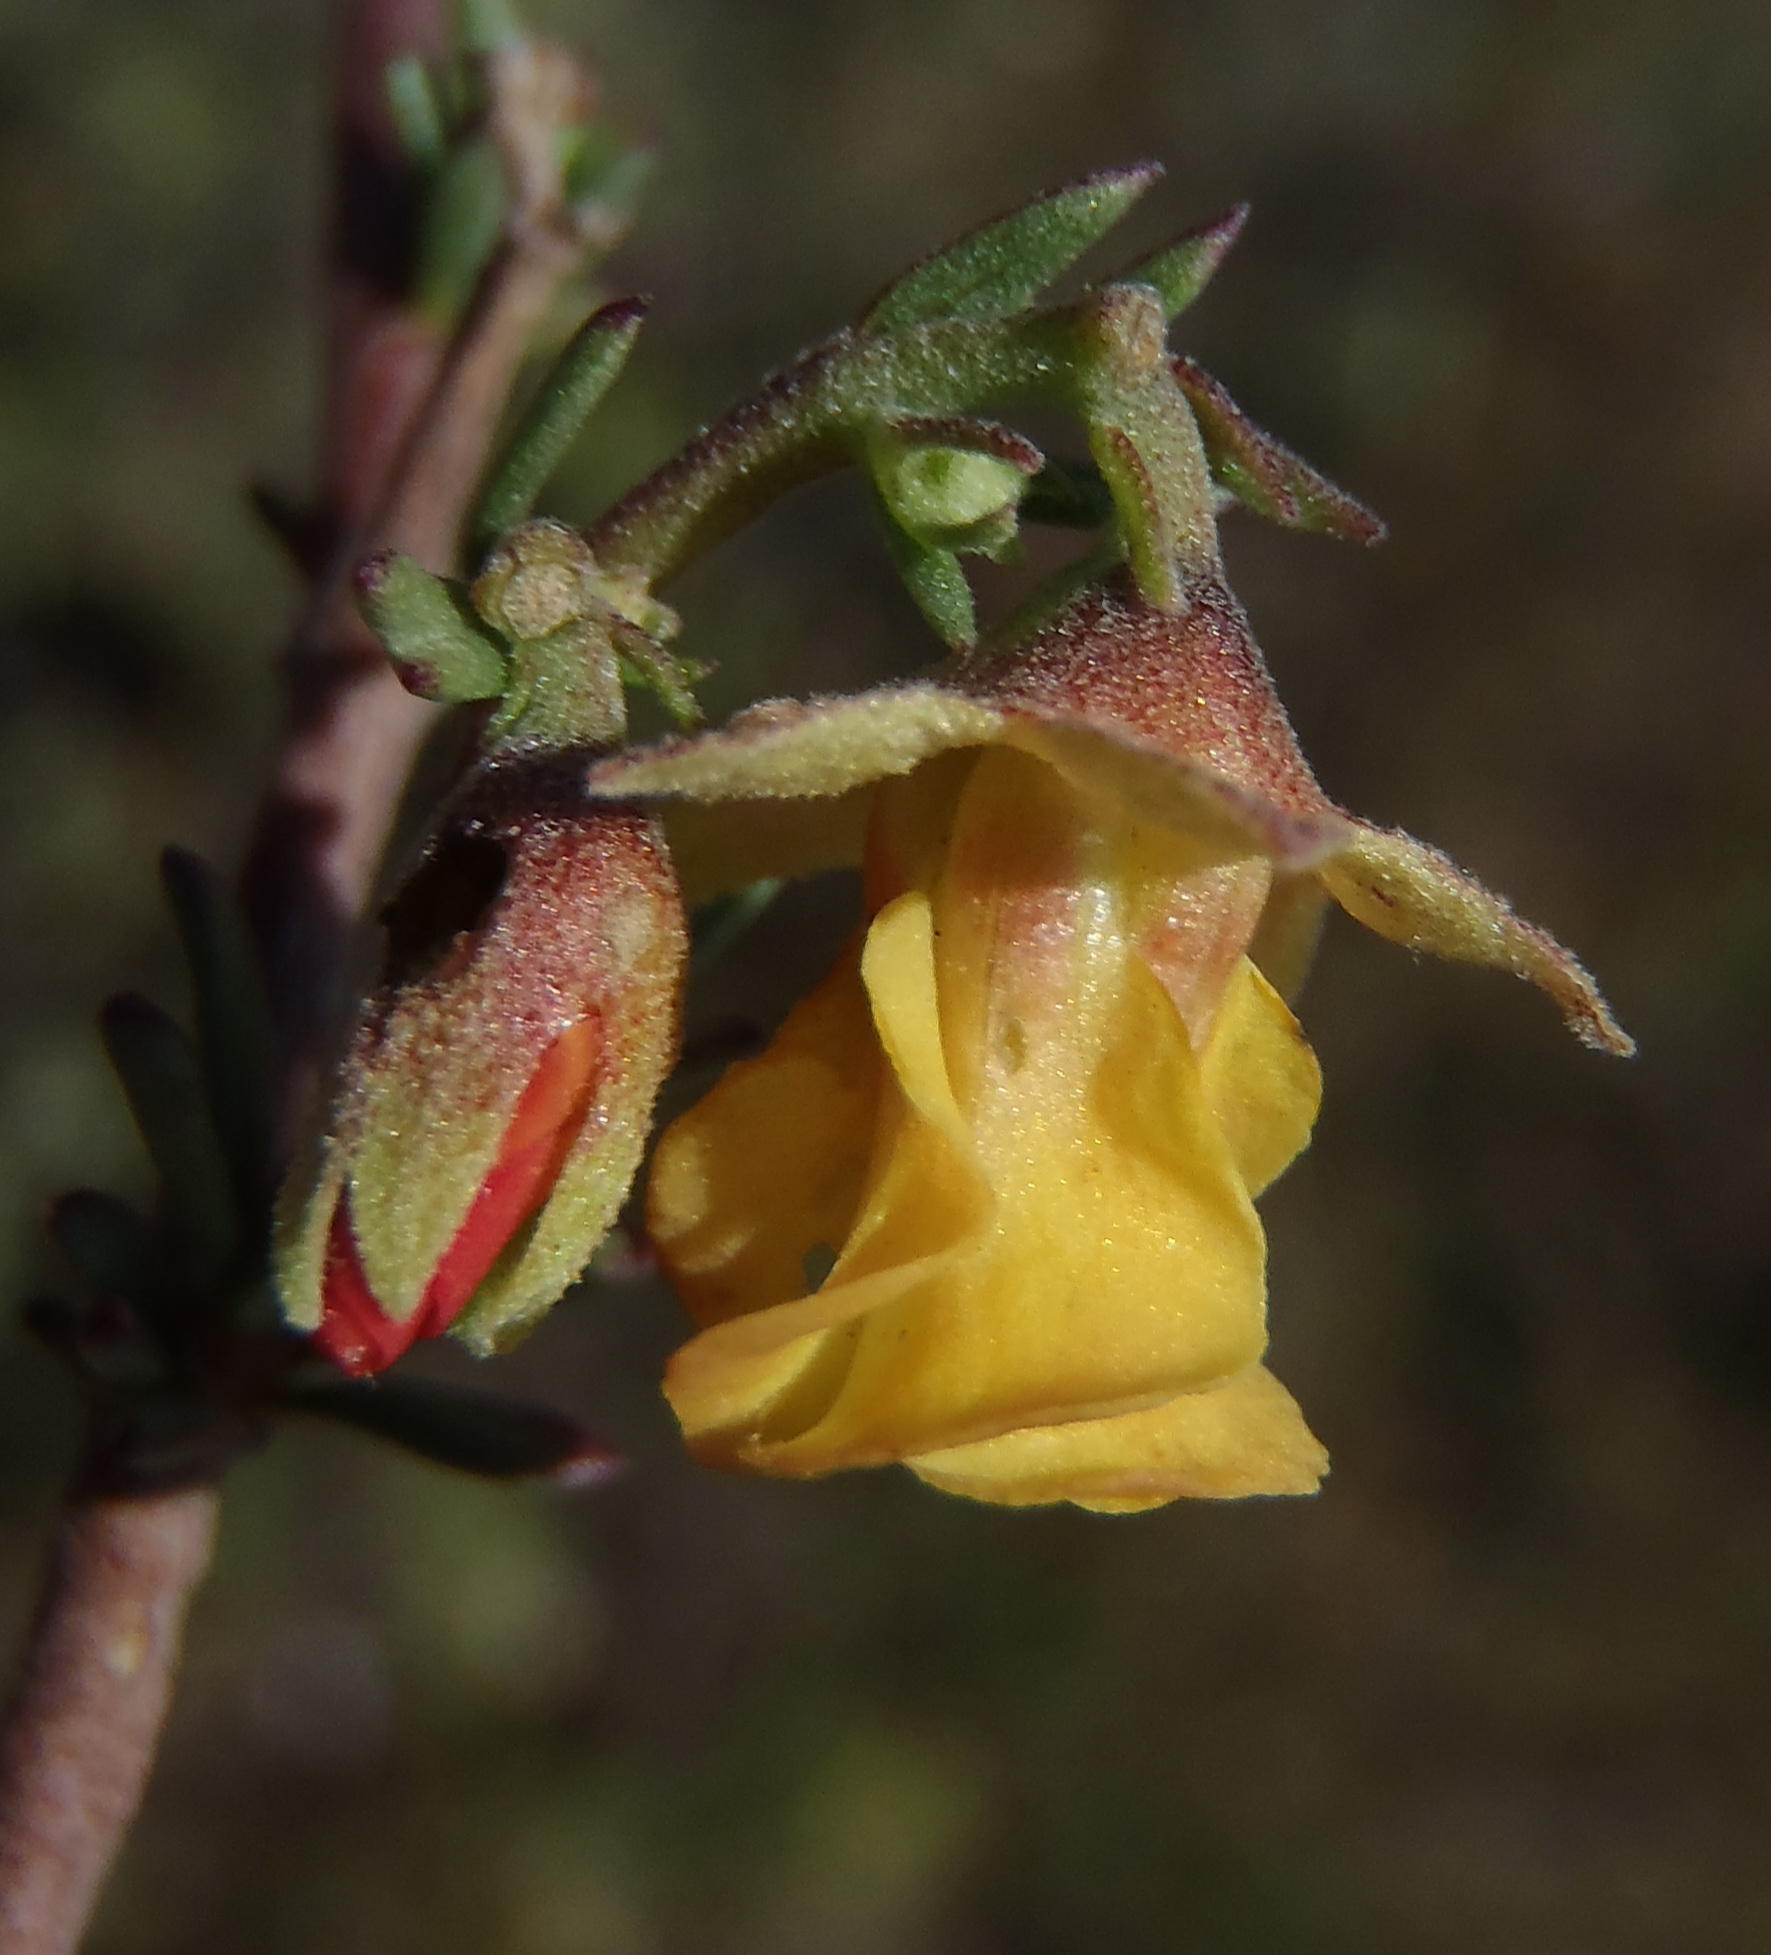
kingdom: Plantae
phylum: Tracheophyta
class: Magnoliopsida
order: Malvales
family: Malvaceae
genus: Hermannia
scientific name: Hermannia filifolia
